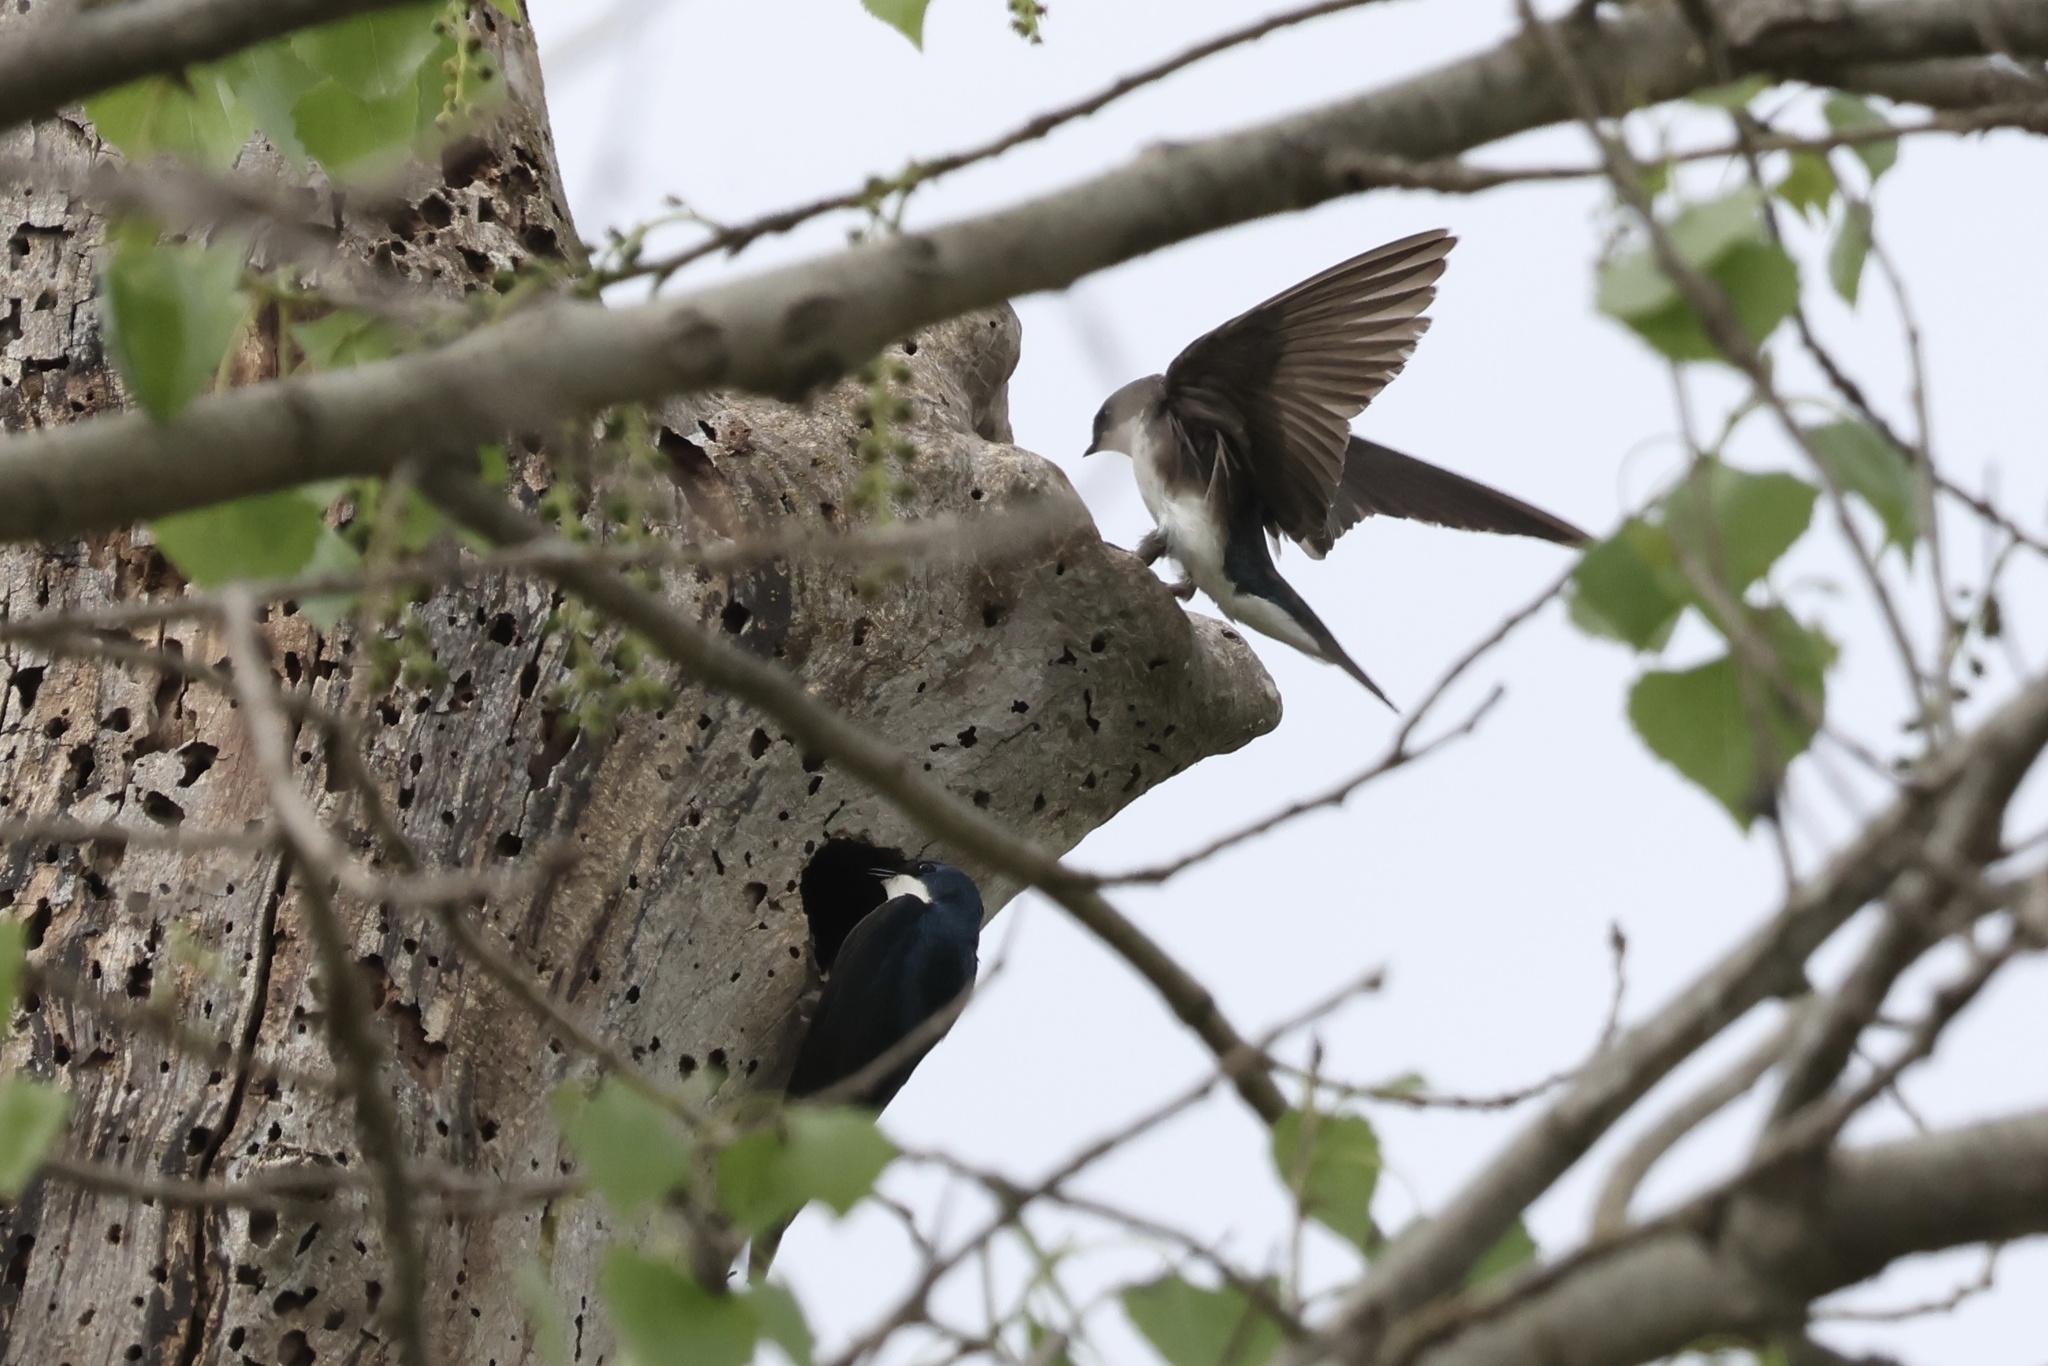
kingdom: Animalia
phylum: Chordata
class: Aves
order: Passeriformes
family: Hirundinidae
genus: Tachycineta
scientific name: Tachycineta bicolor
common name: Tree swallow
